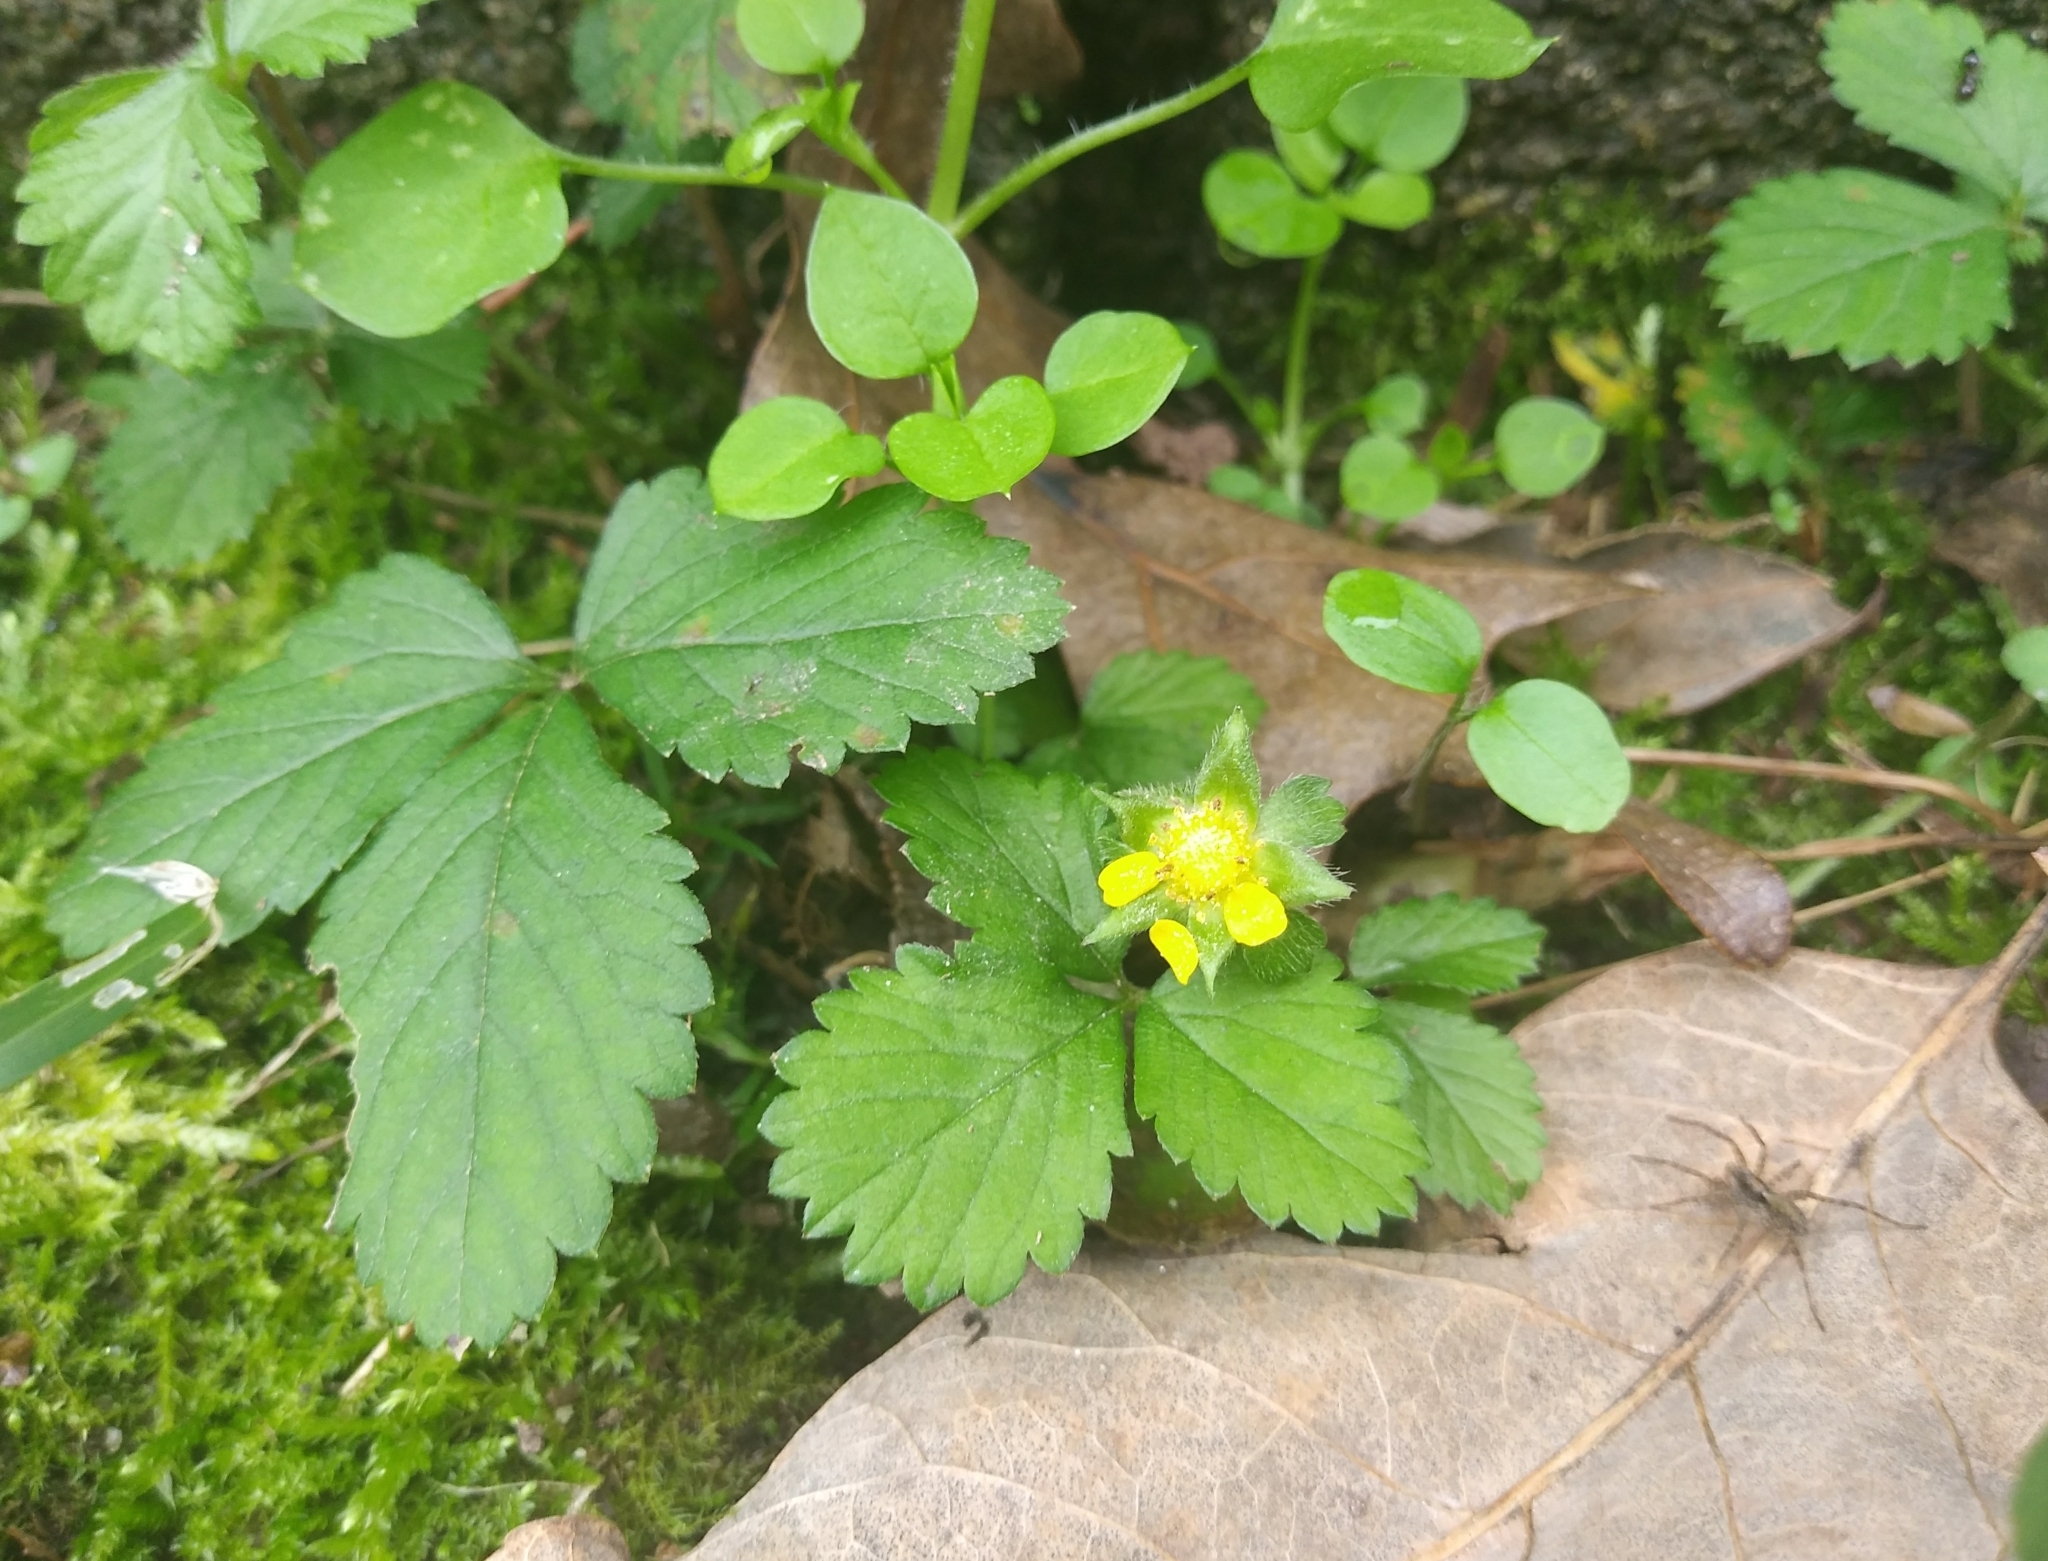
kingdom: Plantae
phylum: Tracheophyta
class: Magnoliopsida
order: Rosales
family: Rosaceae
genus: Potentilla
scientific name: Potentilla indica
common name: Yellow-flowered strawberry
